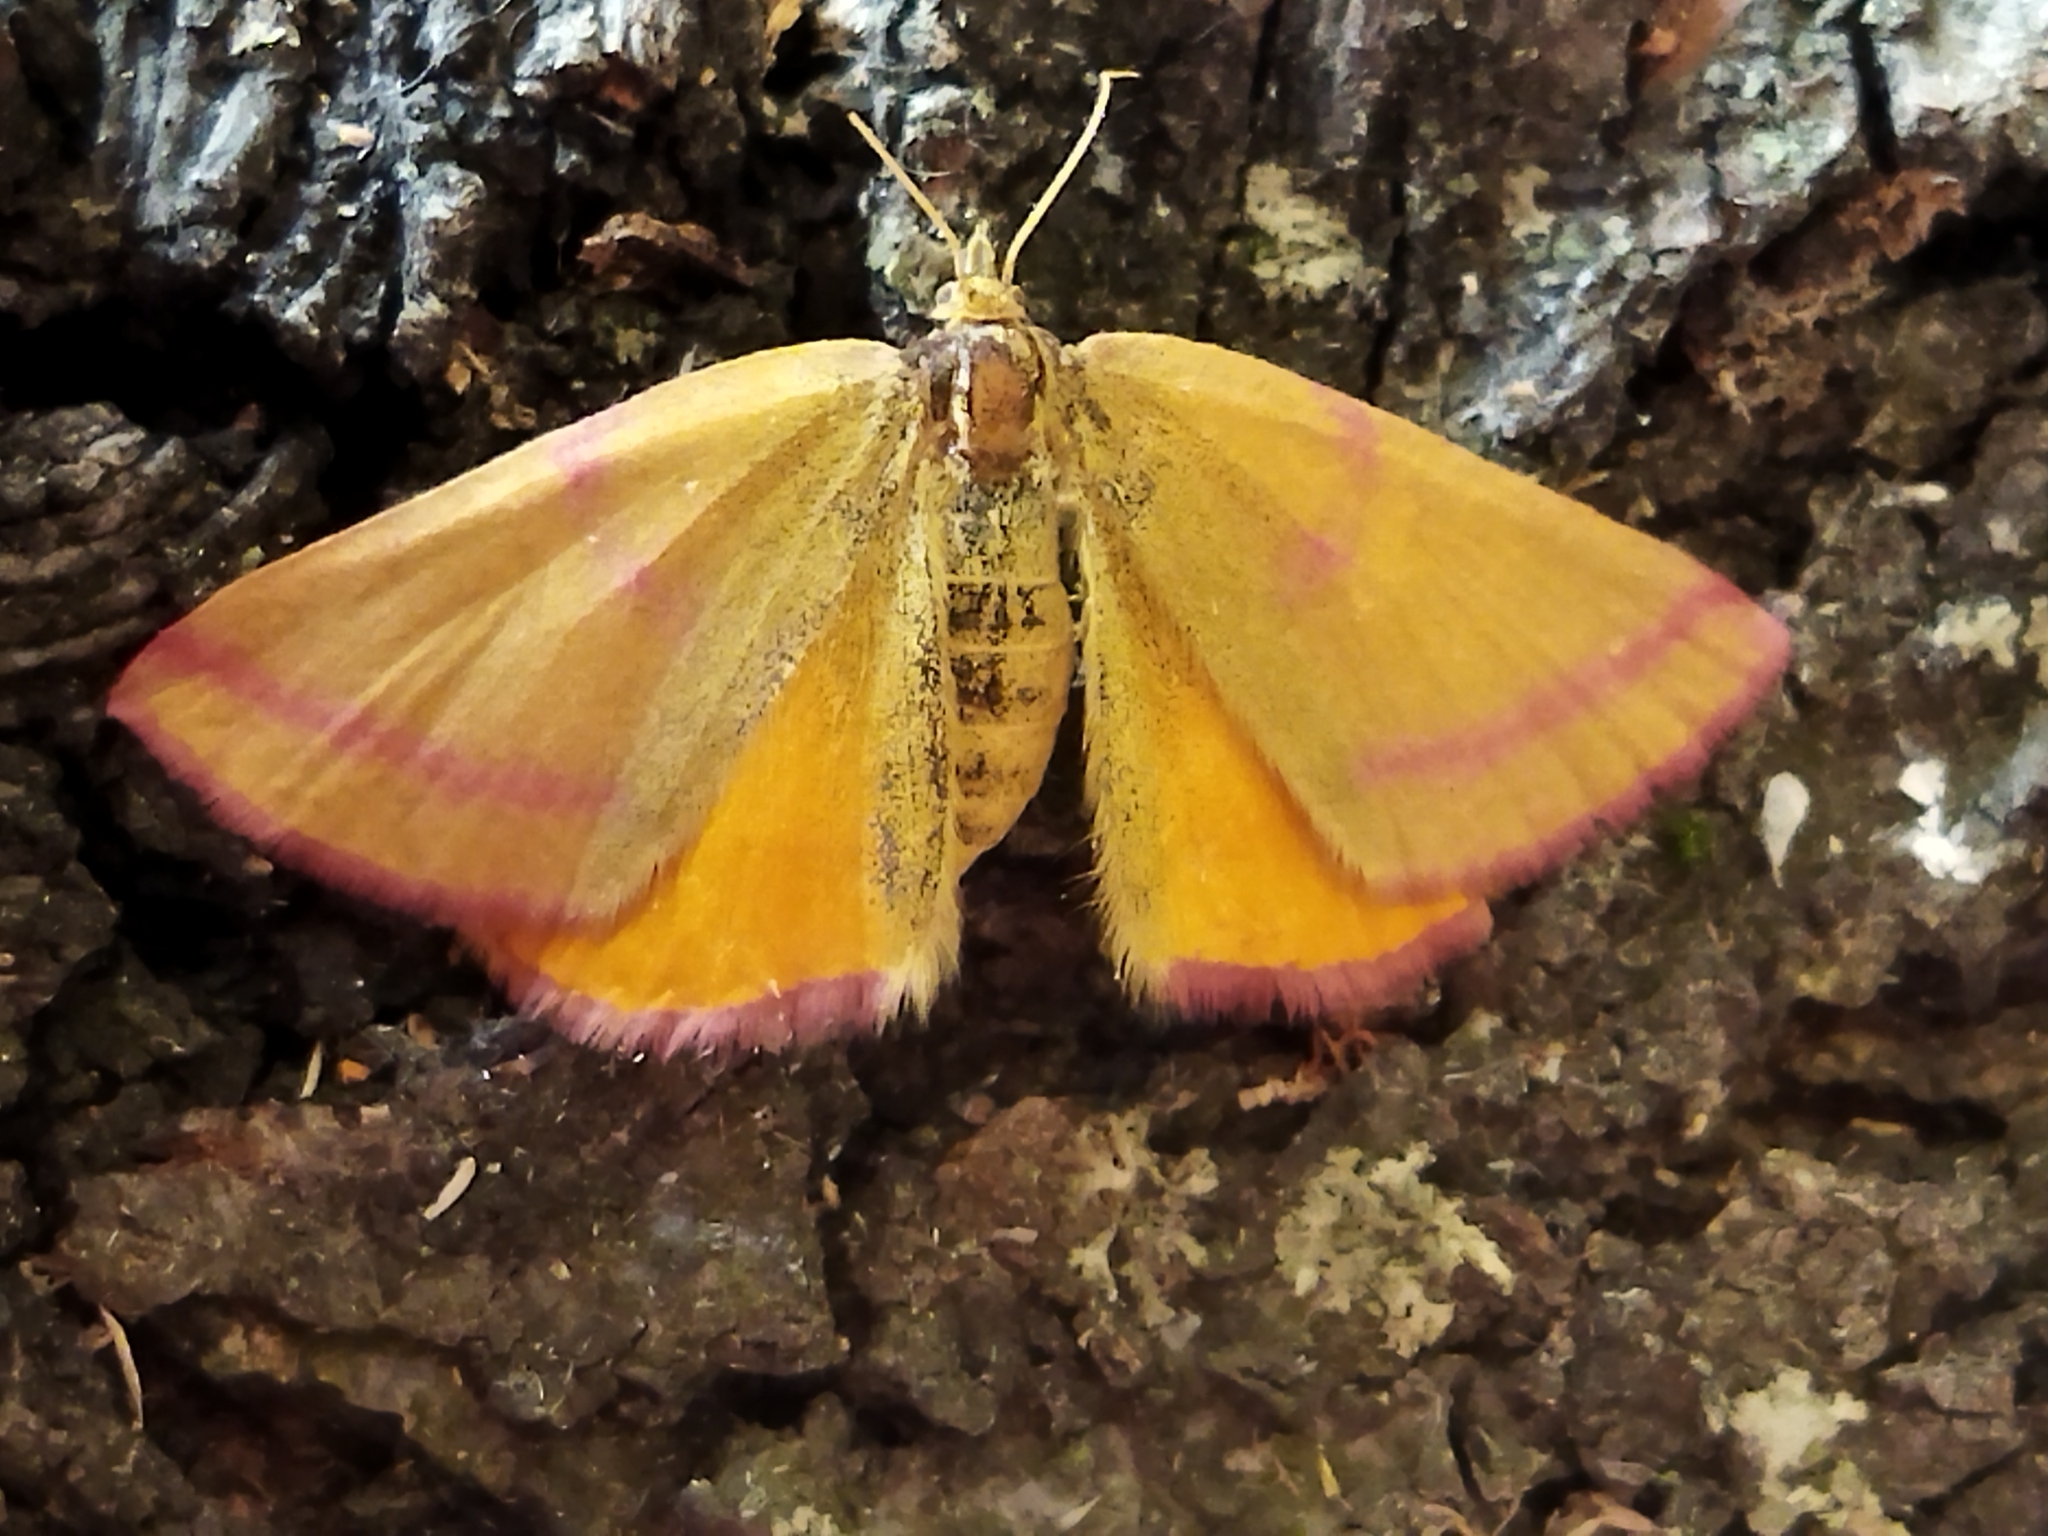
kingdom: Animalia
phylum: Arthropoda
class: Insecta
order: Lepidoptera
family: Geometridae
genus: Lythria
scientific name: Lythria purpuraria
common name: Purple-barred yellow
